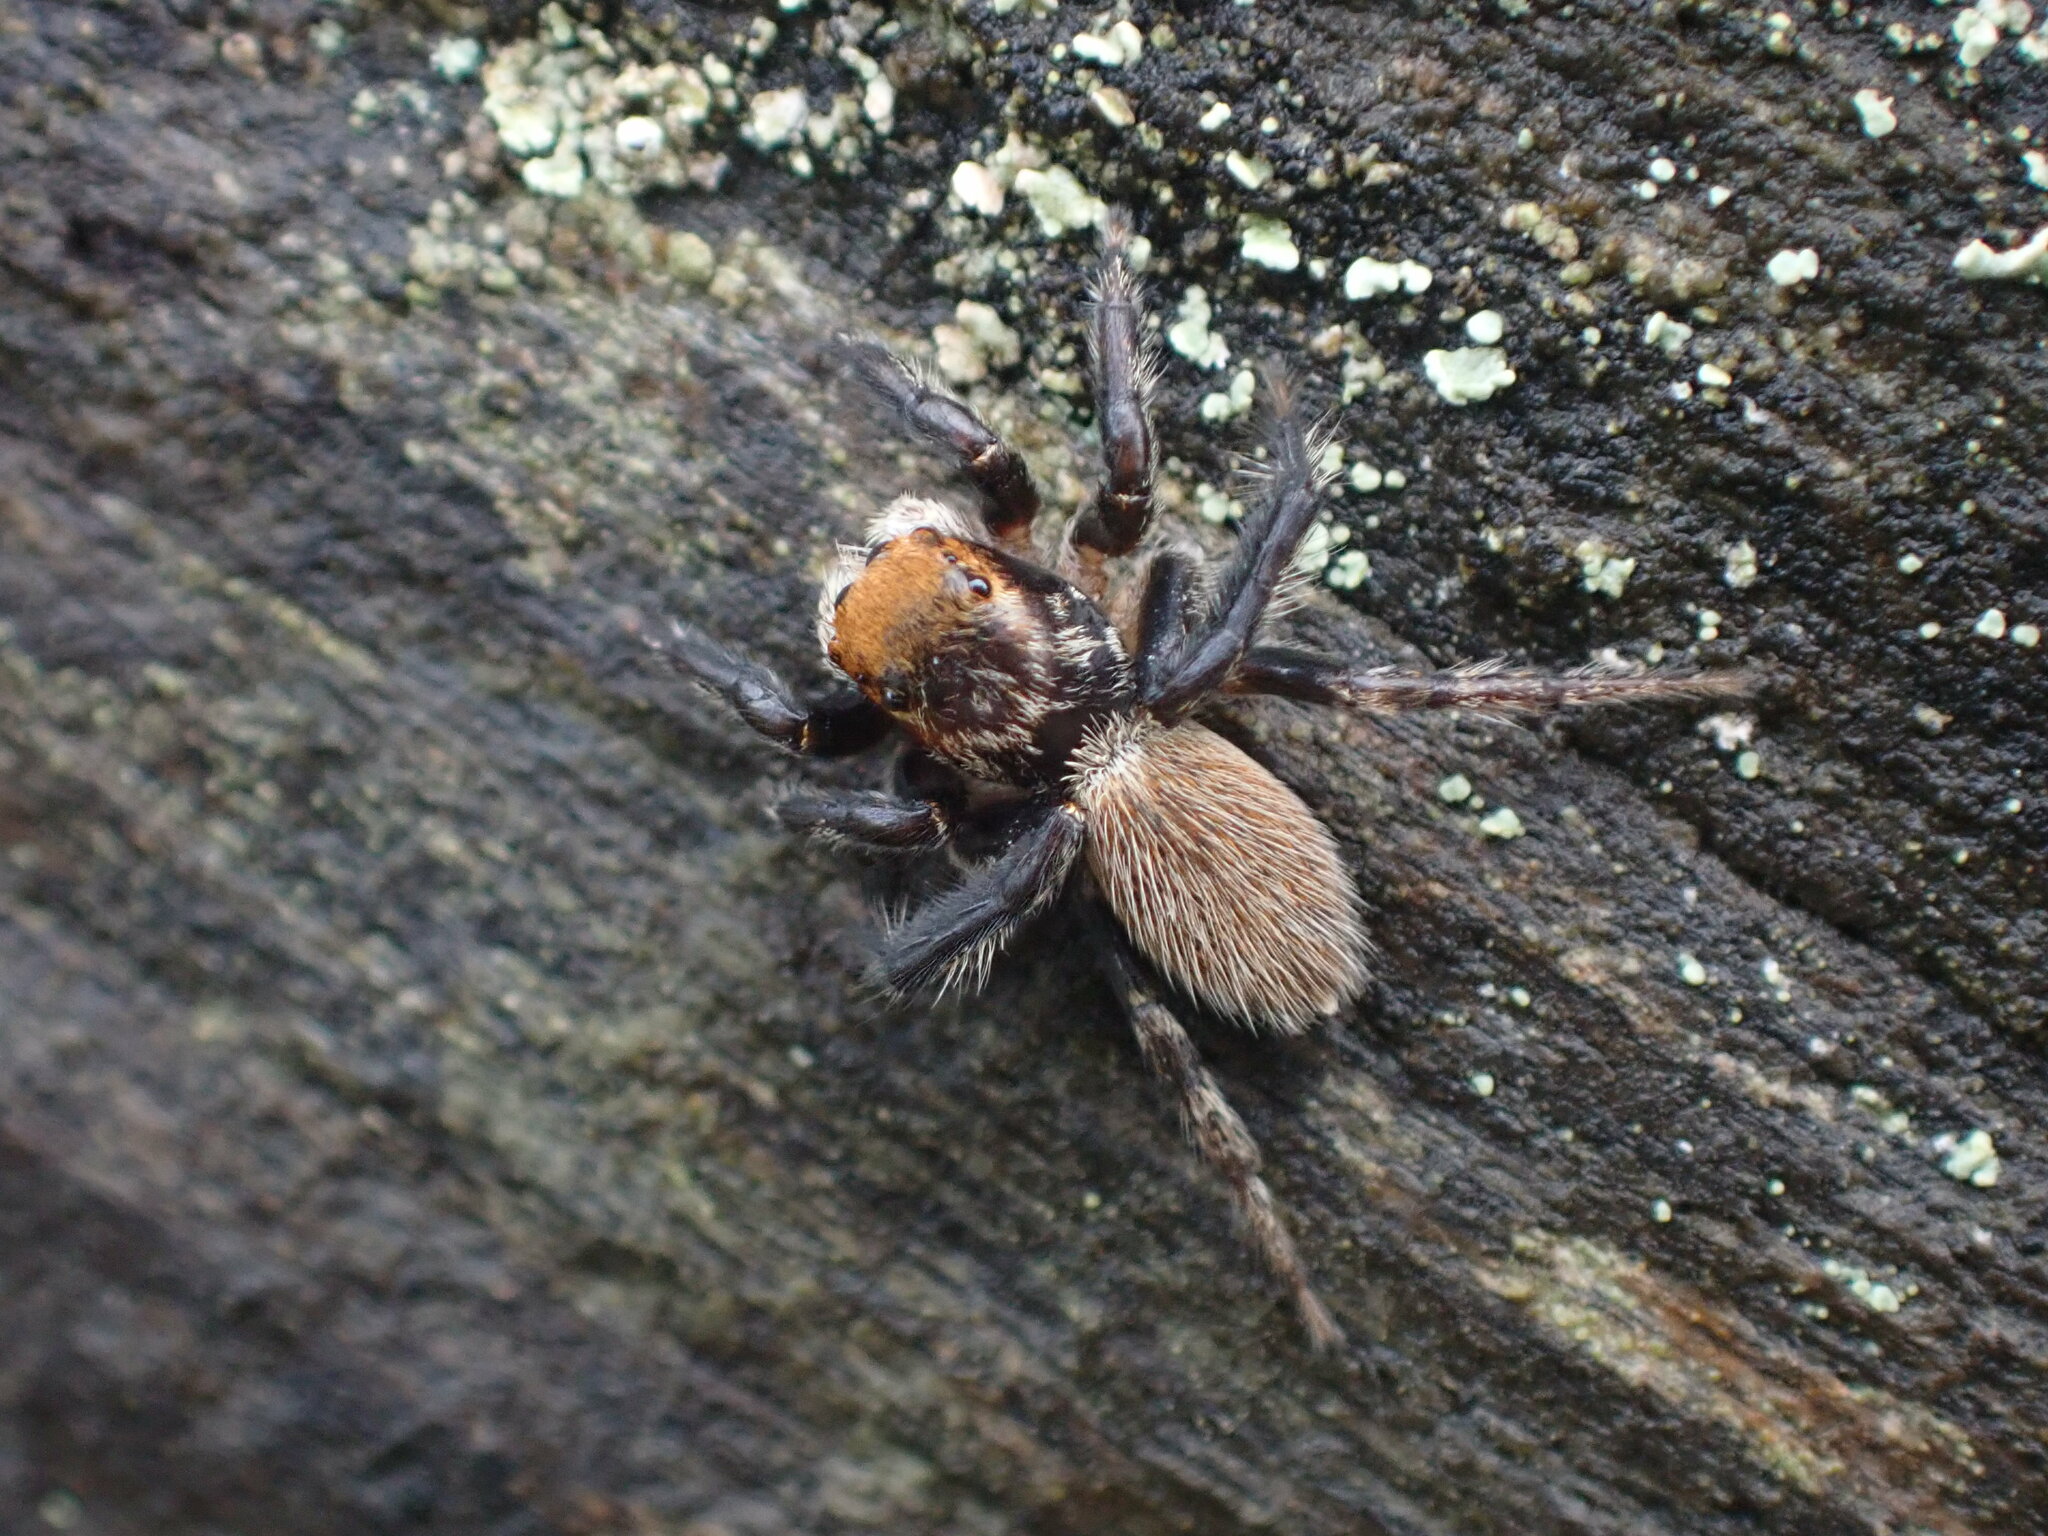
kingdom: Animalia
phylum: Arthropoda
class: Arachnida
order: Araneae
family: Salticidae
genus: Maratus
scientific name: Maratus griseus
